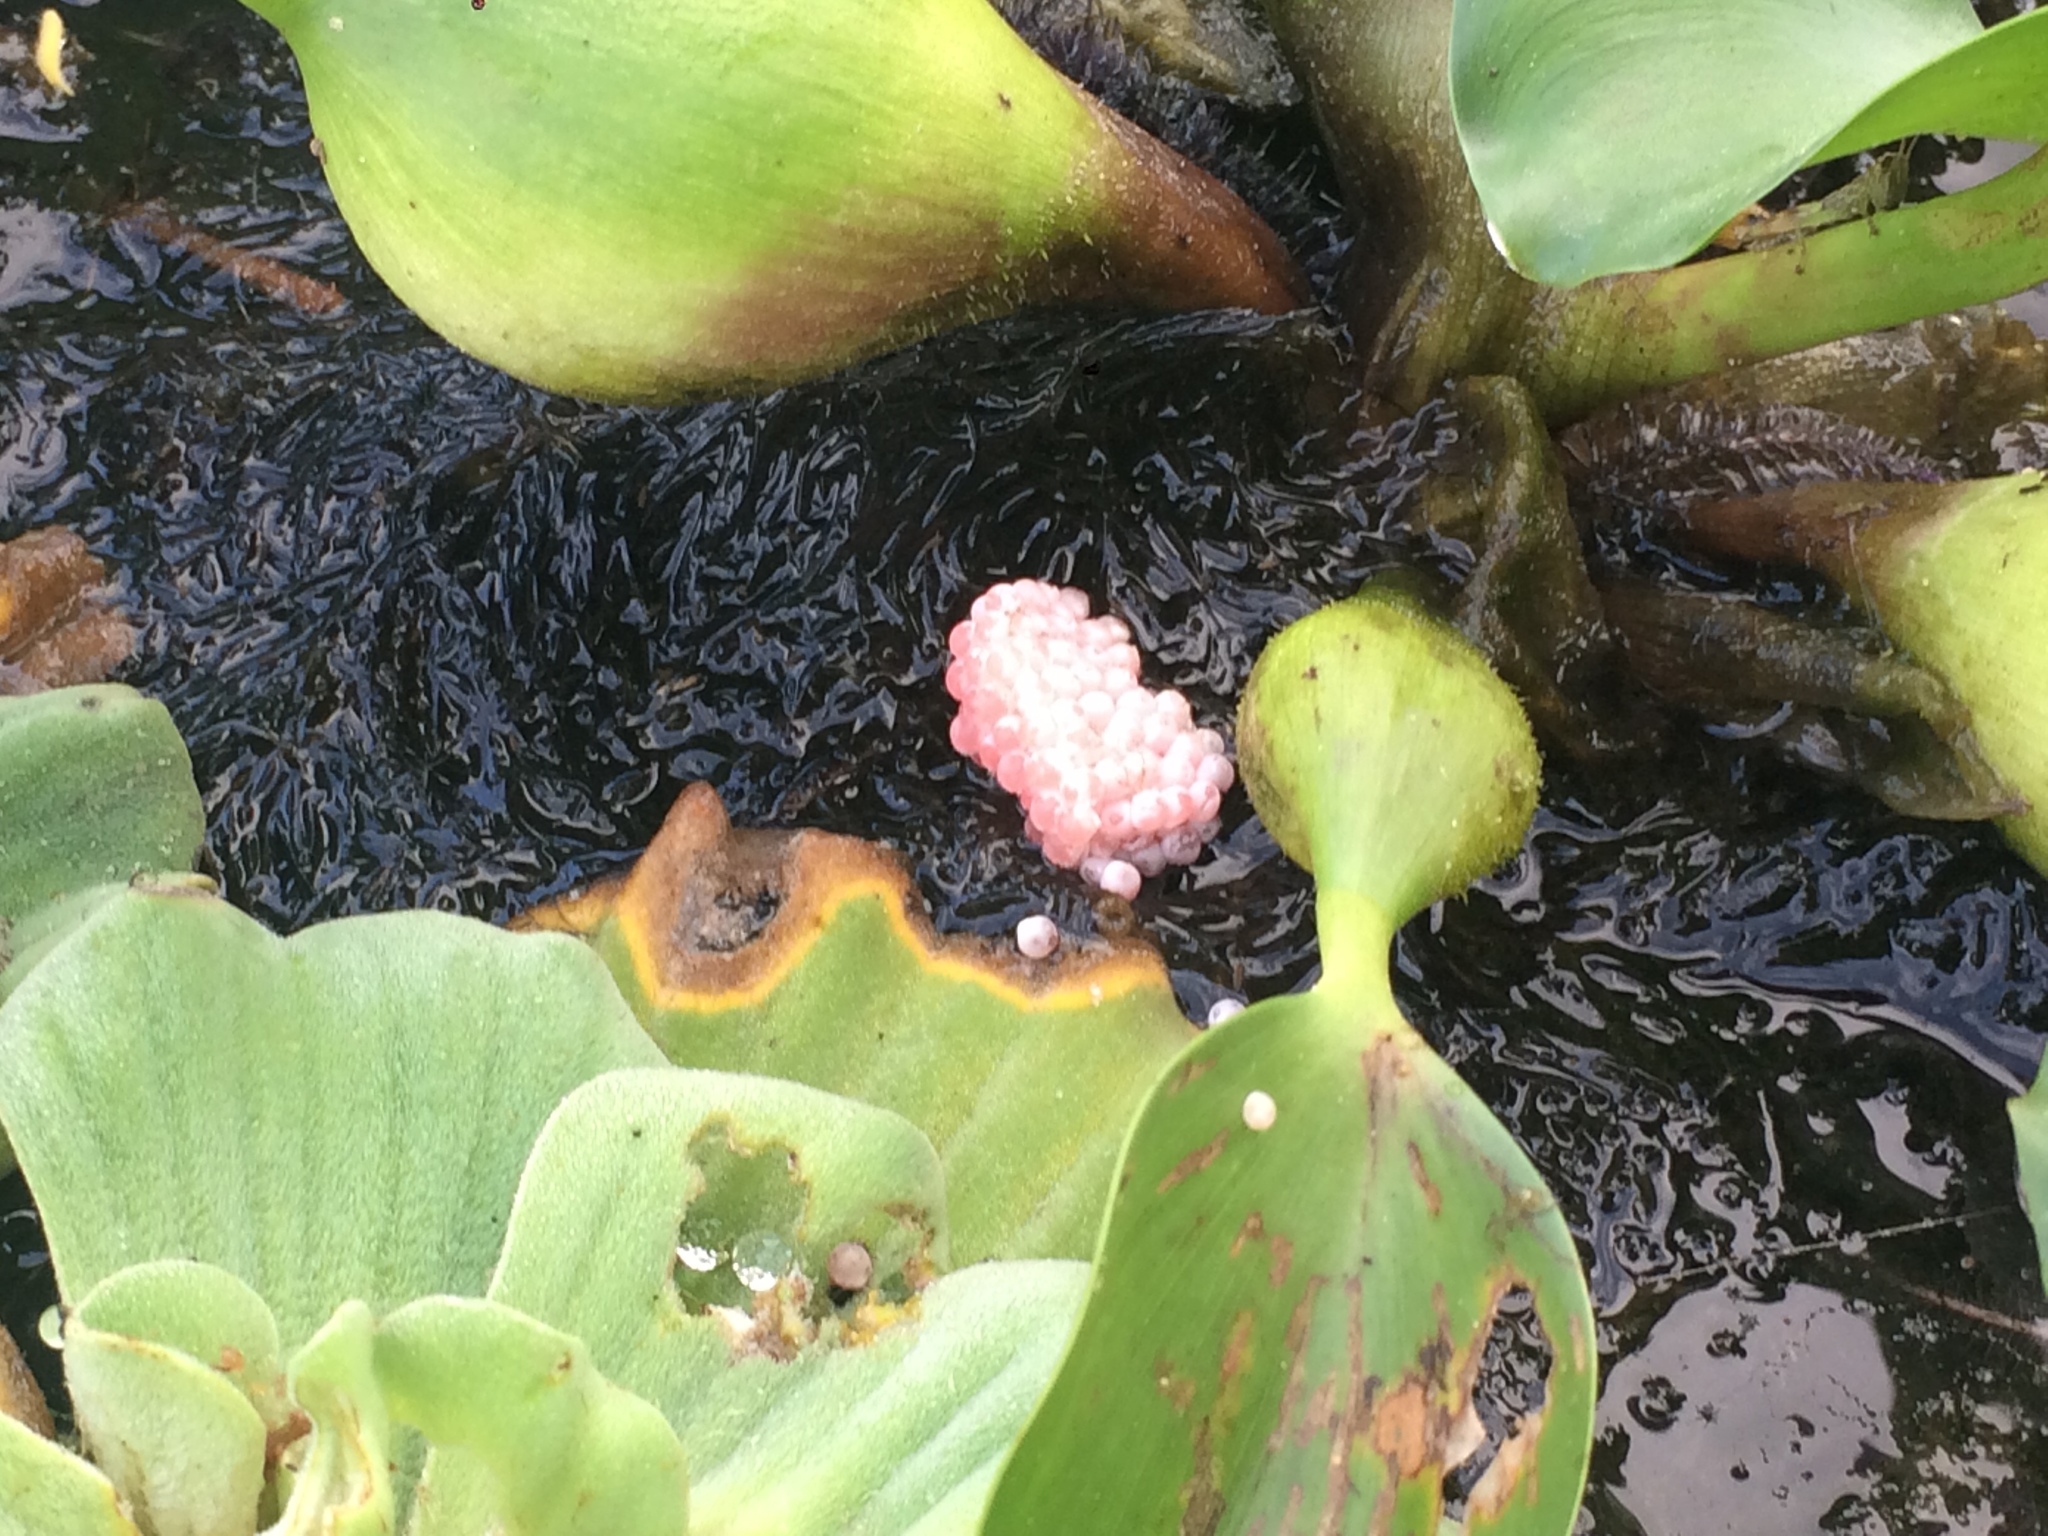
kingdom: Animalia
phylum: Mollusca
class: Gastropoda
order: Architaenioglossa
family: Ampullariidae
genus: Pomacea
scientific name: Pomacea canaliculata
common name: Channeled applesnail
